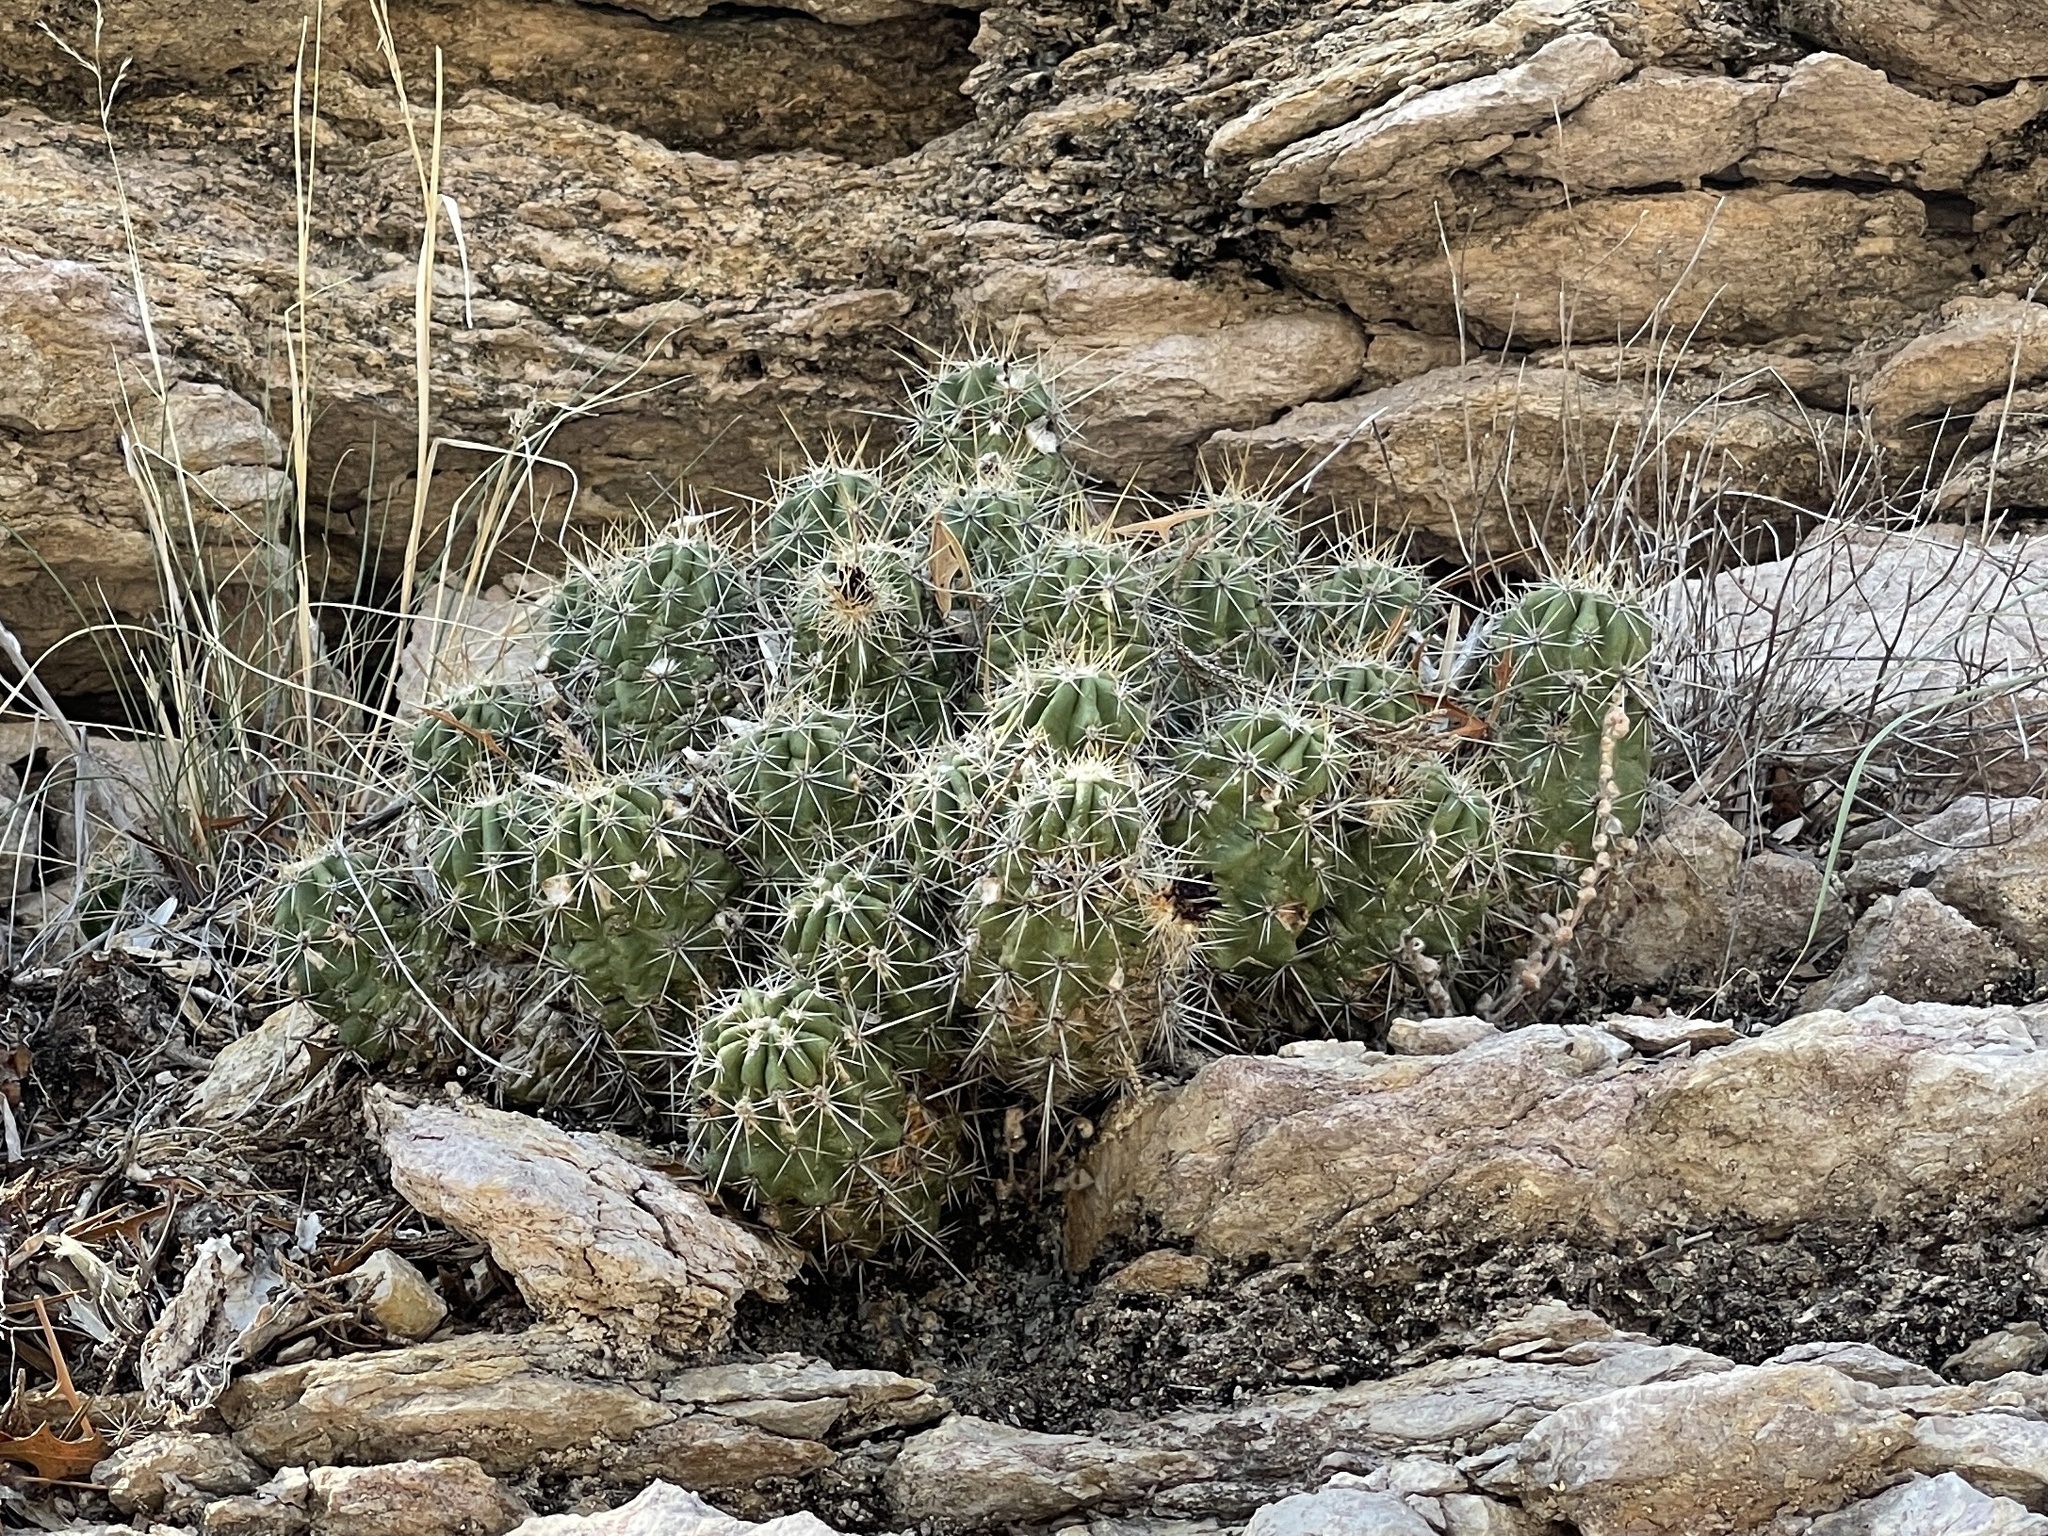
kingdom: Plantae
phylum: Tracheophyta
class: Magnoliopsida
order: Caryophyllales
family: Cactaceae
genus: Echinocereus
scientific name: Echinocereus enneacanthus
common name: Pitaya
